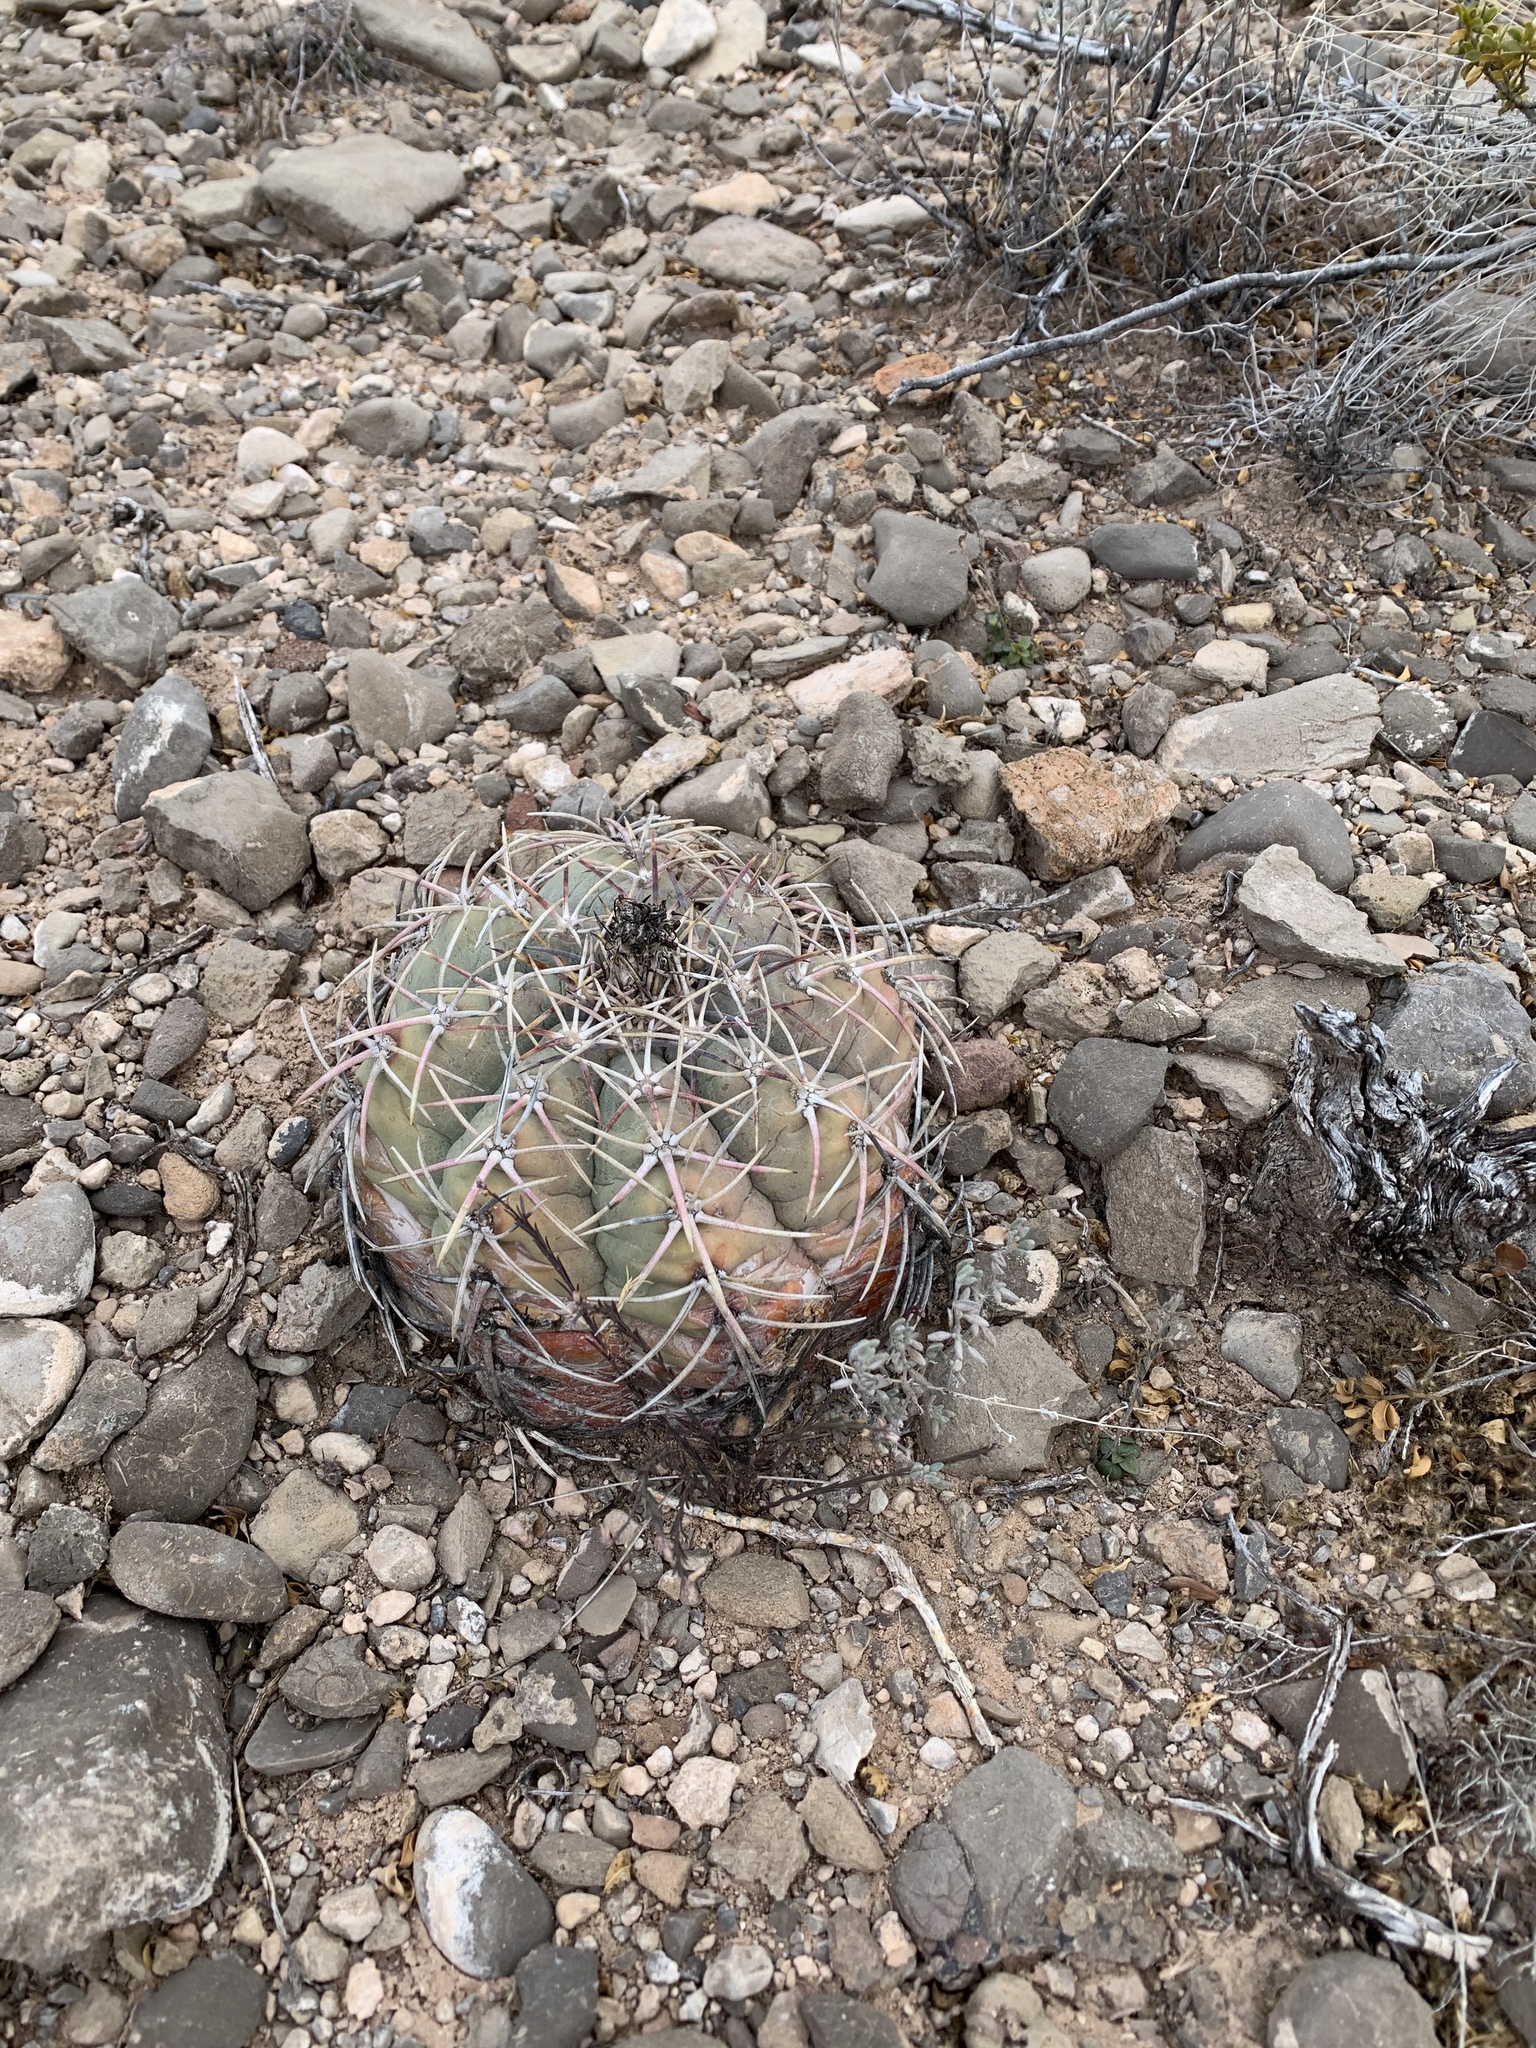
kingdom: Plantae
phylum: Tracheophyta
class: Magnoliopsida
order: Caryophyllales
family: Cactaceae
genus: Echinocactus
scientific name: Echinocactus horizonthalonius
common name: Devilshead
